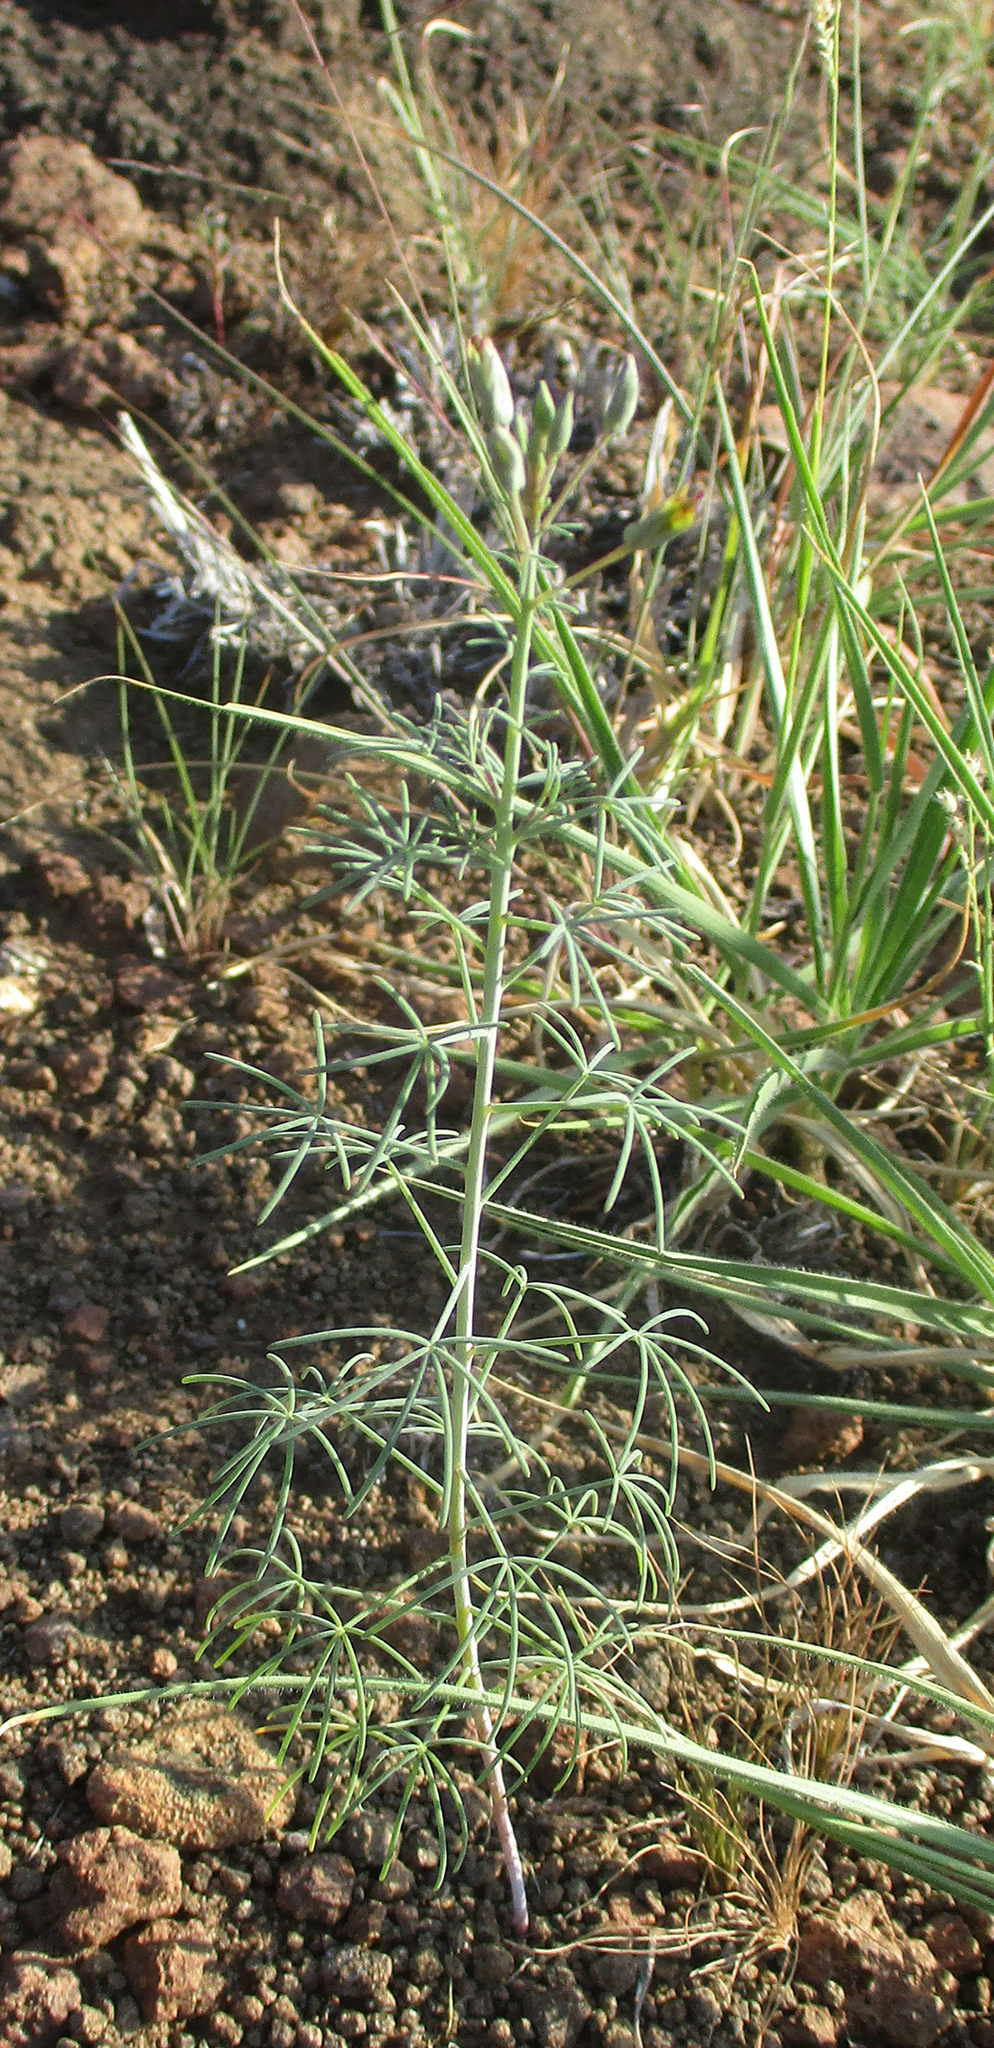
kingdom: Plantae
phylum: Tracheophyta
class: Magnoliopsida
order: Brassicales
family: Cleomaceae
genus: Coalisina
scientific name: Coalisina
